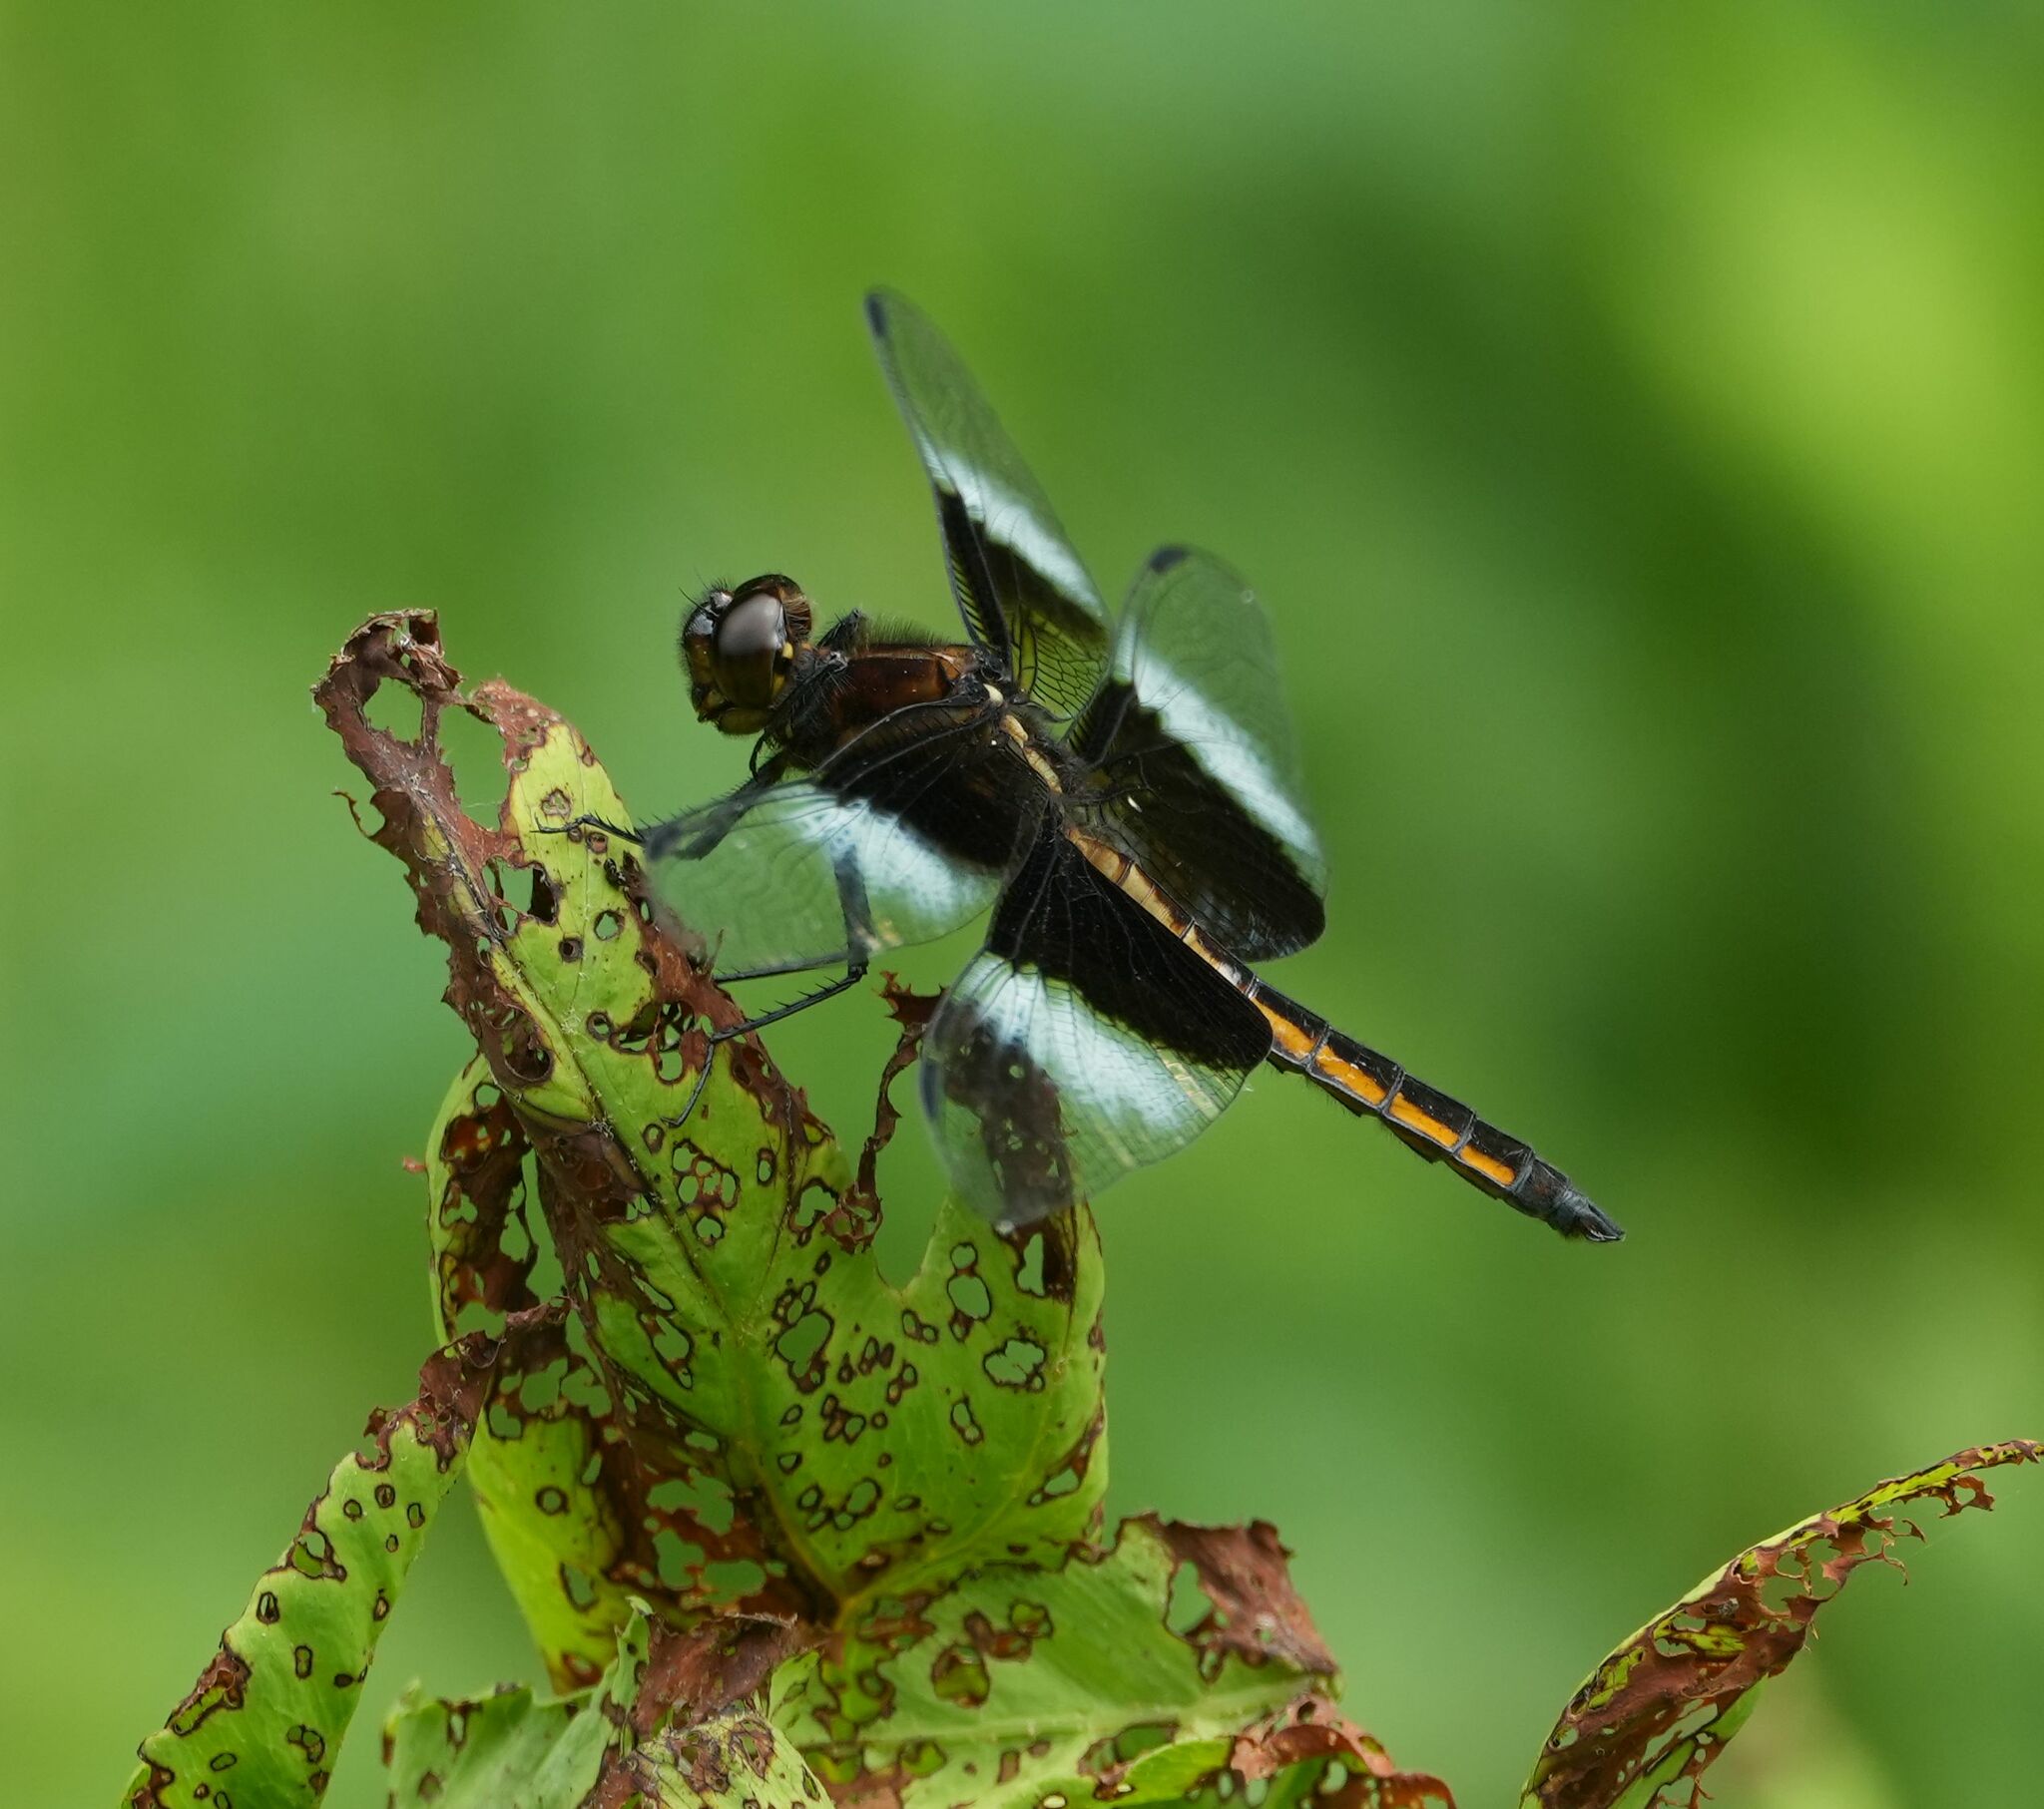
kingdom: Animalia
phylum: Arthropoda
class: Insecta
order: Odonata
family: Libellulidae
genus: Libellula
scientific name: Libellula luctuosa
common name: Widow skimmer
